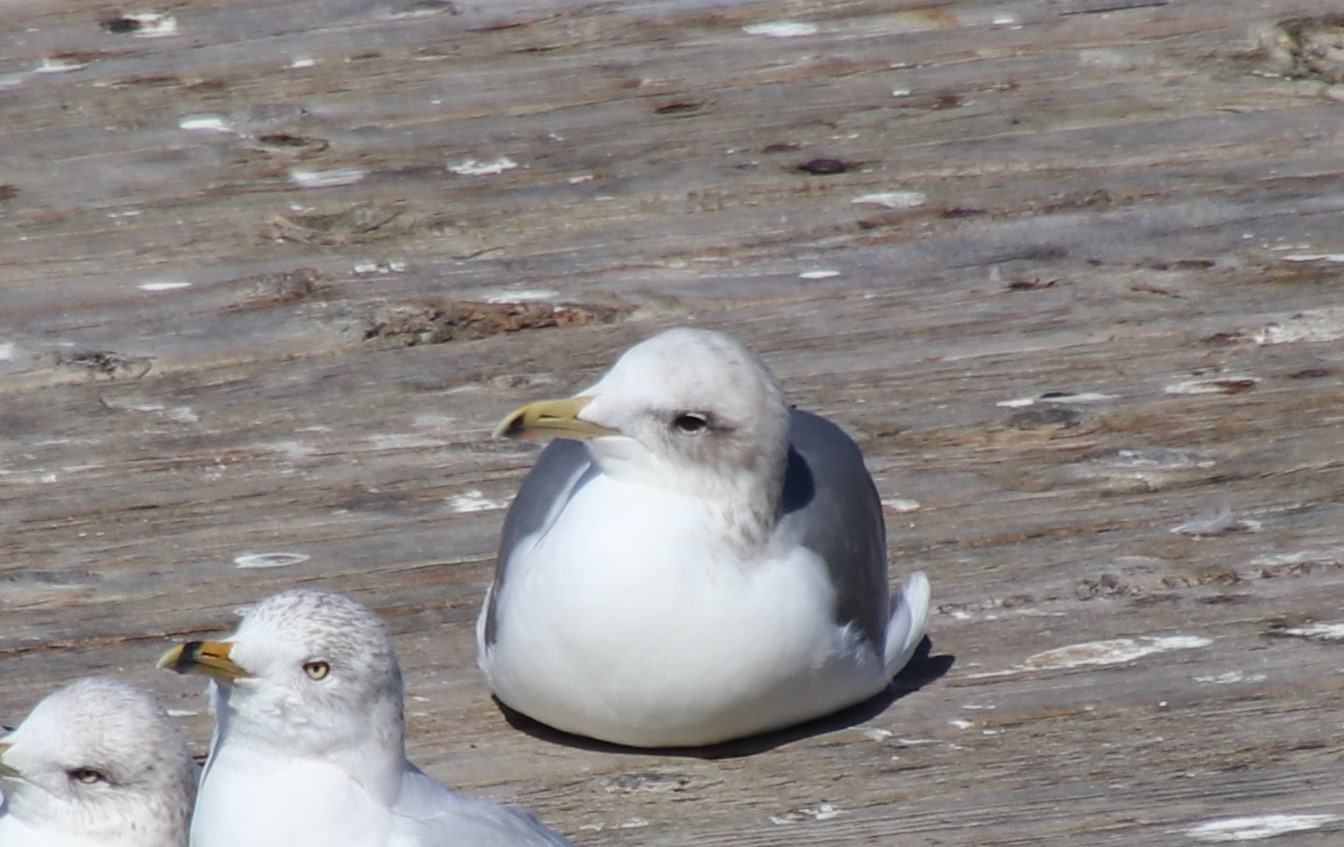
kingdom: Animalia
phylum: Chordata
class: Aves
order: Charadriiformes
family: Laridae
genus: Larus
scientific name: Larus californicus
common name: California gull
